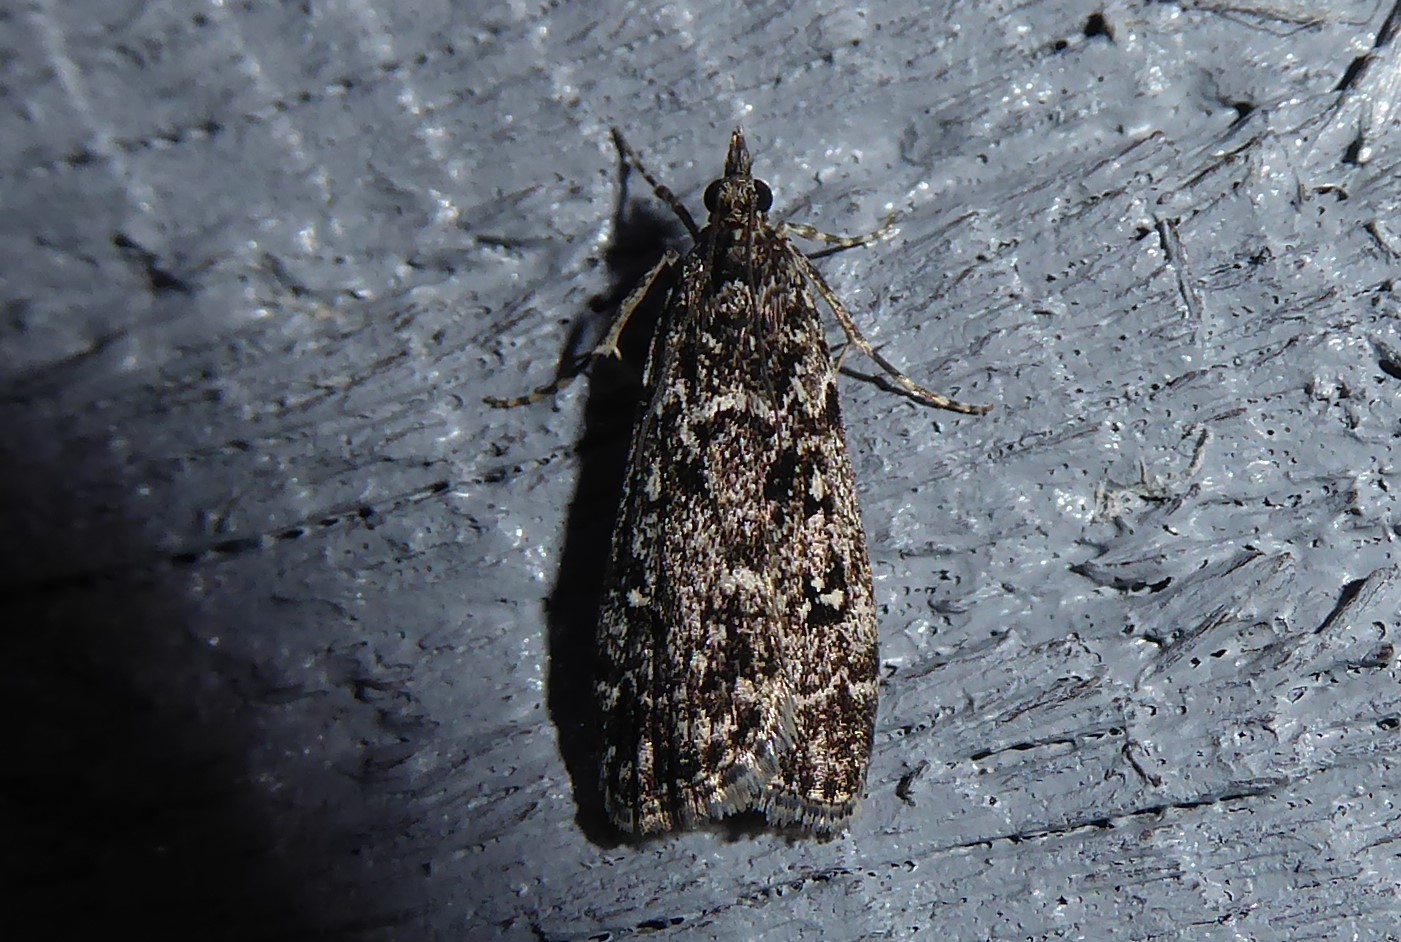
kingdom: Animalia
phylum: Arthropoda
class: Insecta
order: Lepidoptera
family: Crambidae
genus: Eudonia
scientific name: Eudonia philerga
